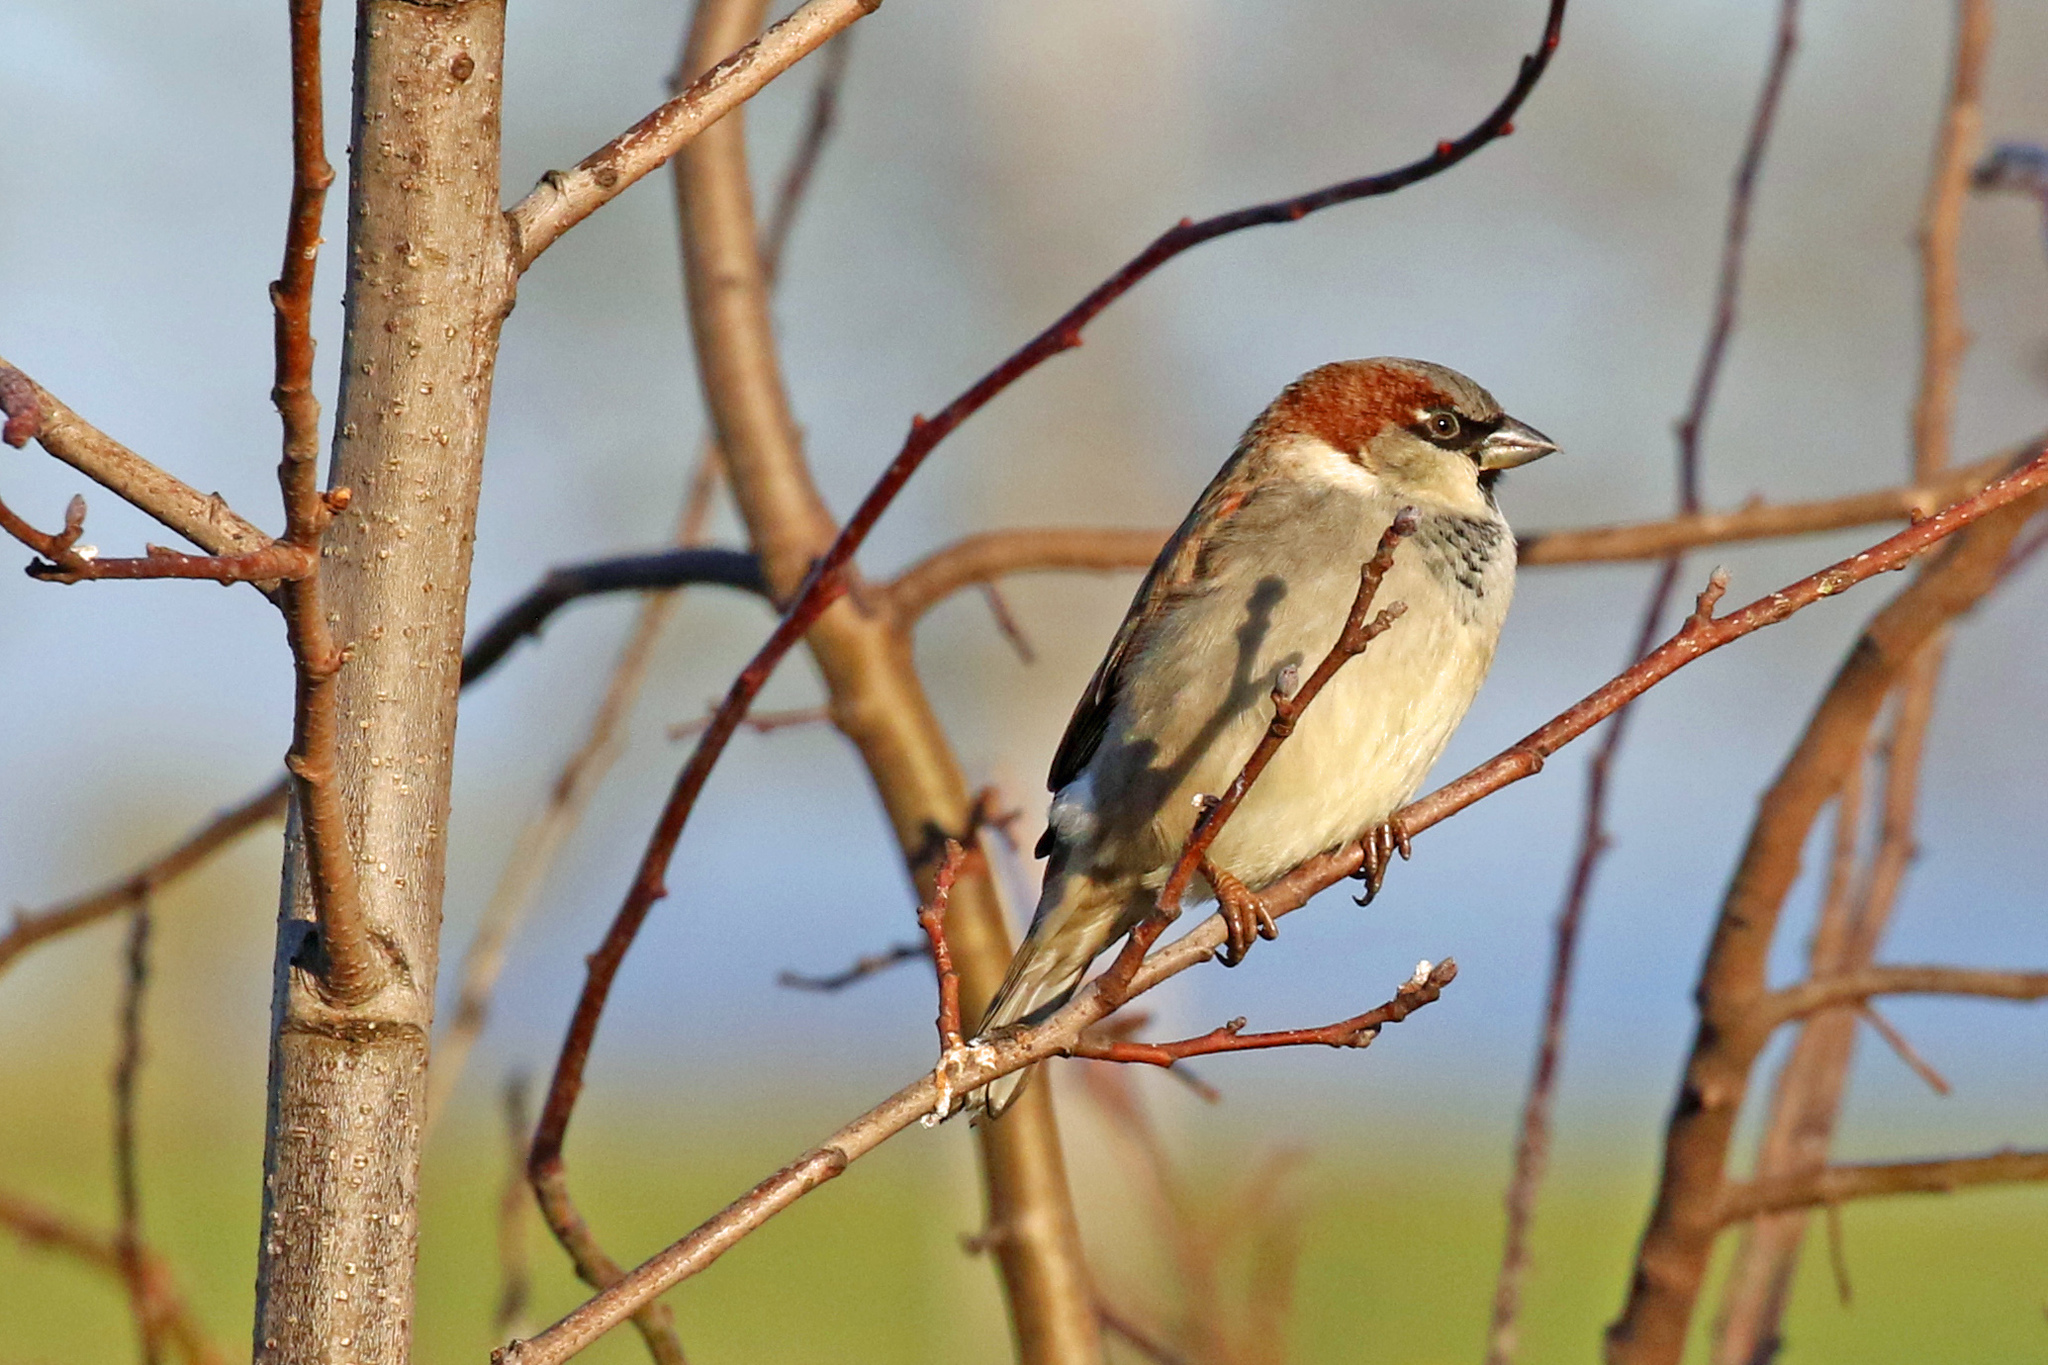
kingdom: Animalia
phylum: Chordata
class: Aves
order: Passeriformes
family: Passeridae
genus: Passer
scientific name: Passer domesticus
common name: House sparrow
